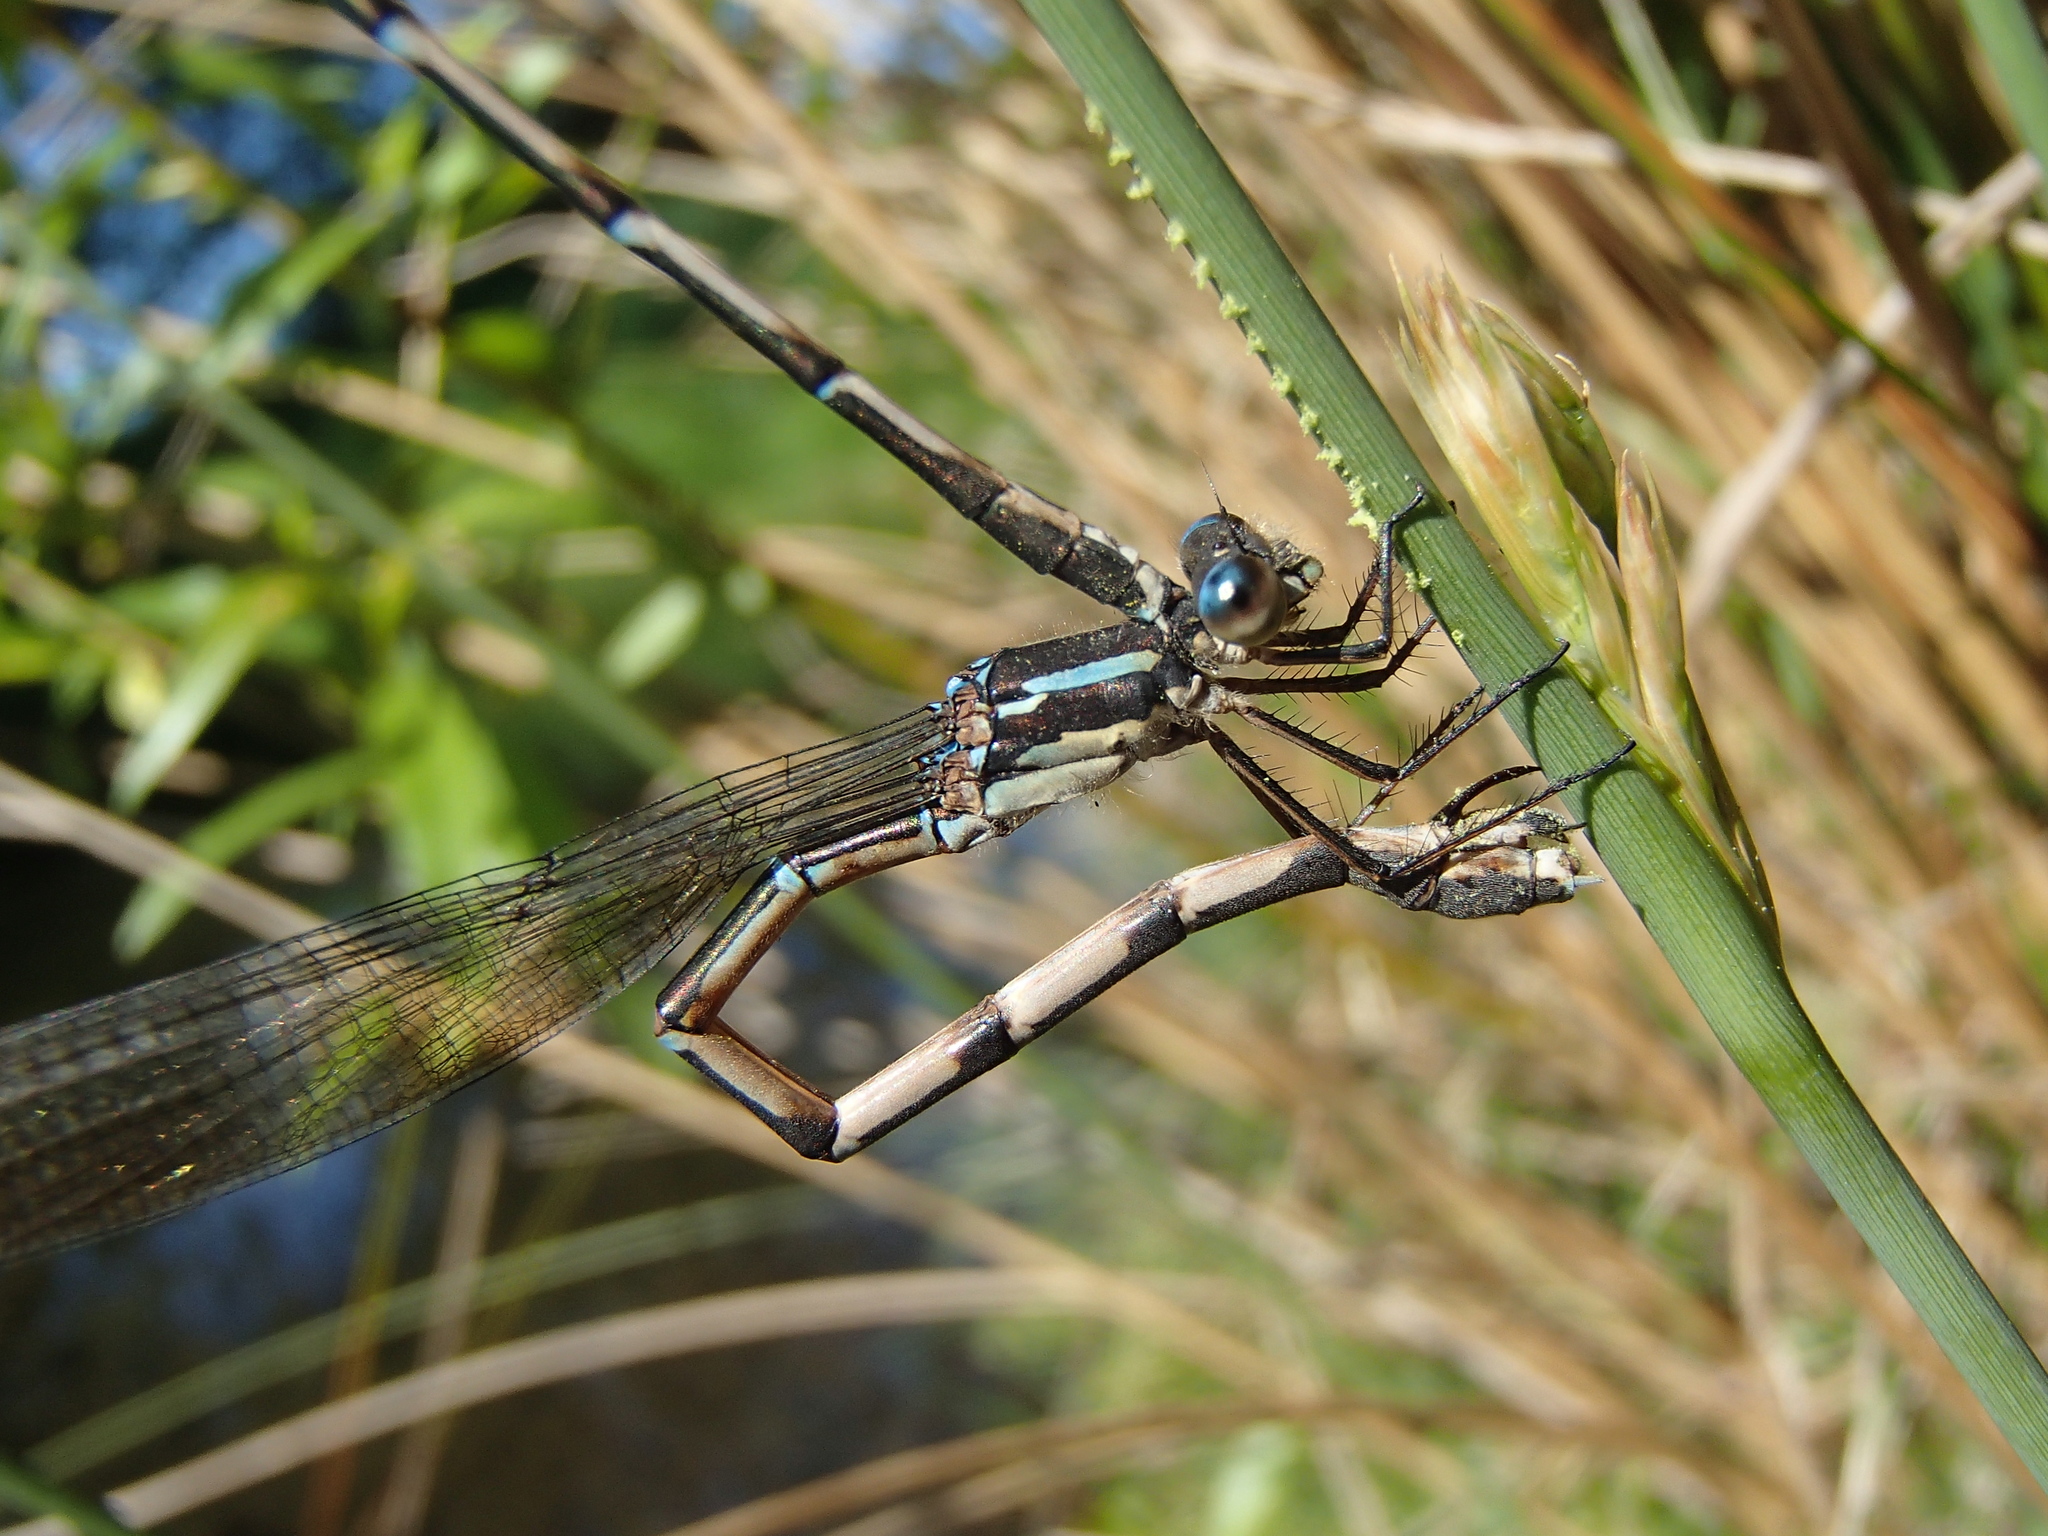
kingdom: Animalia
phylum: Arthropoda
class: Insecta
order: Odonata
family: Lestidae
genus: Austrolestes
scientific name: Austrolestes colensonis
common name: Blue damselfly
